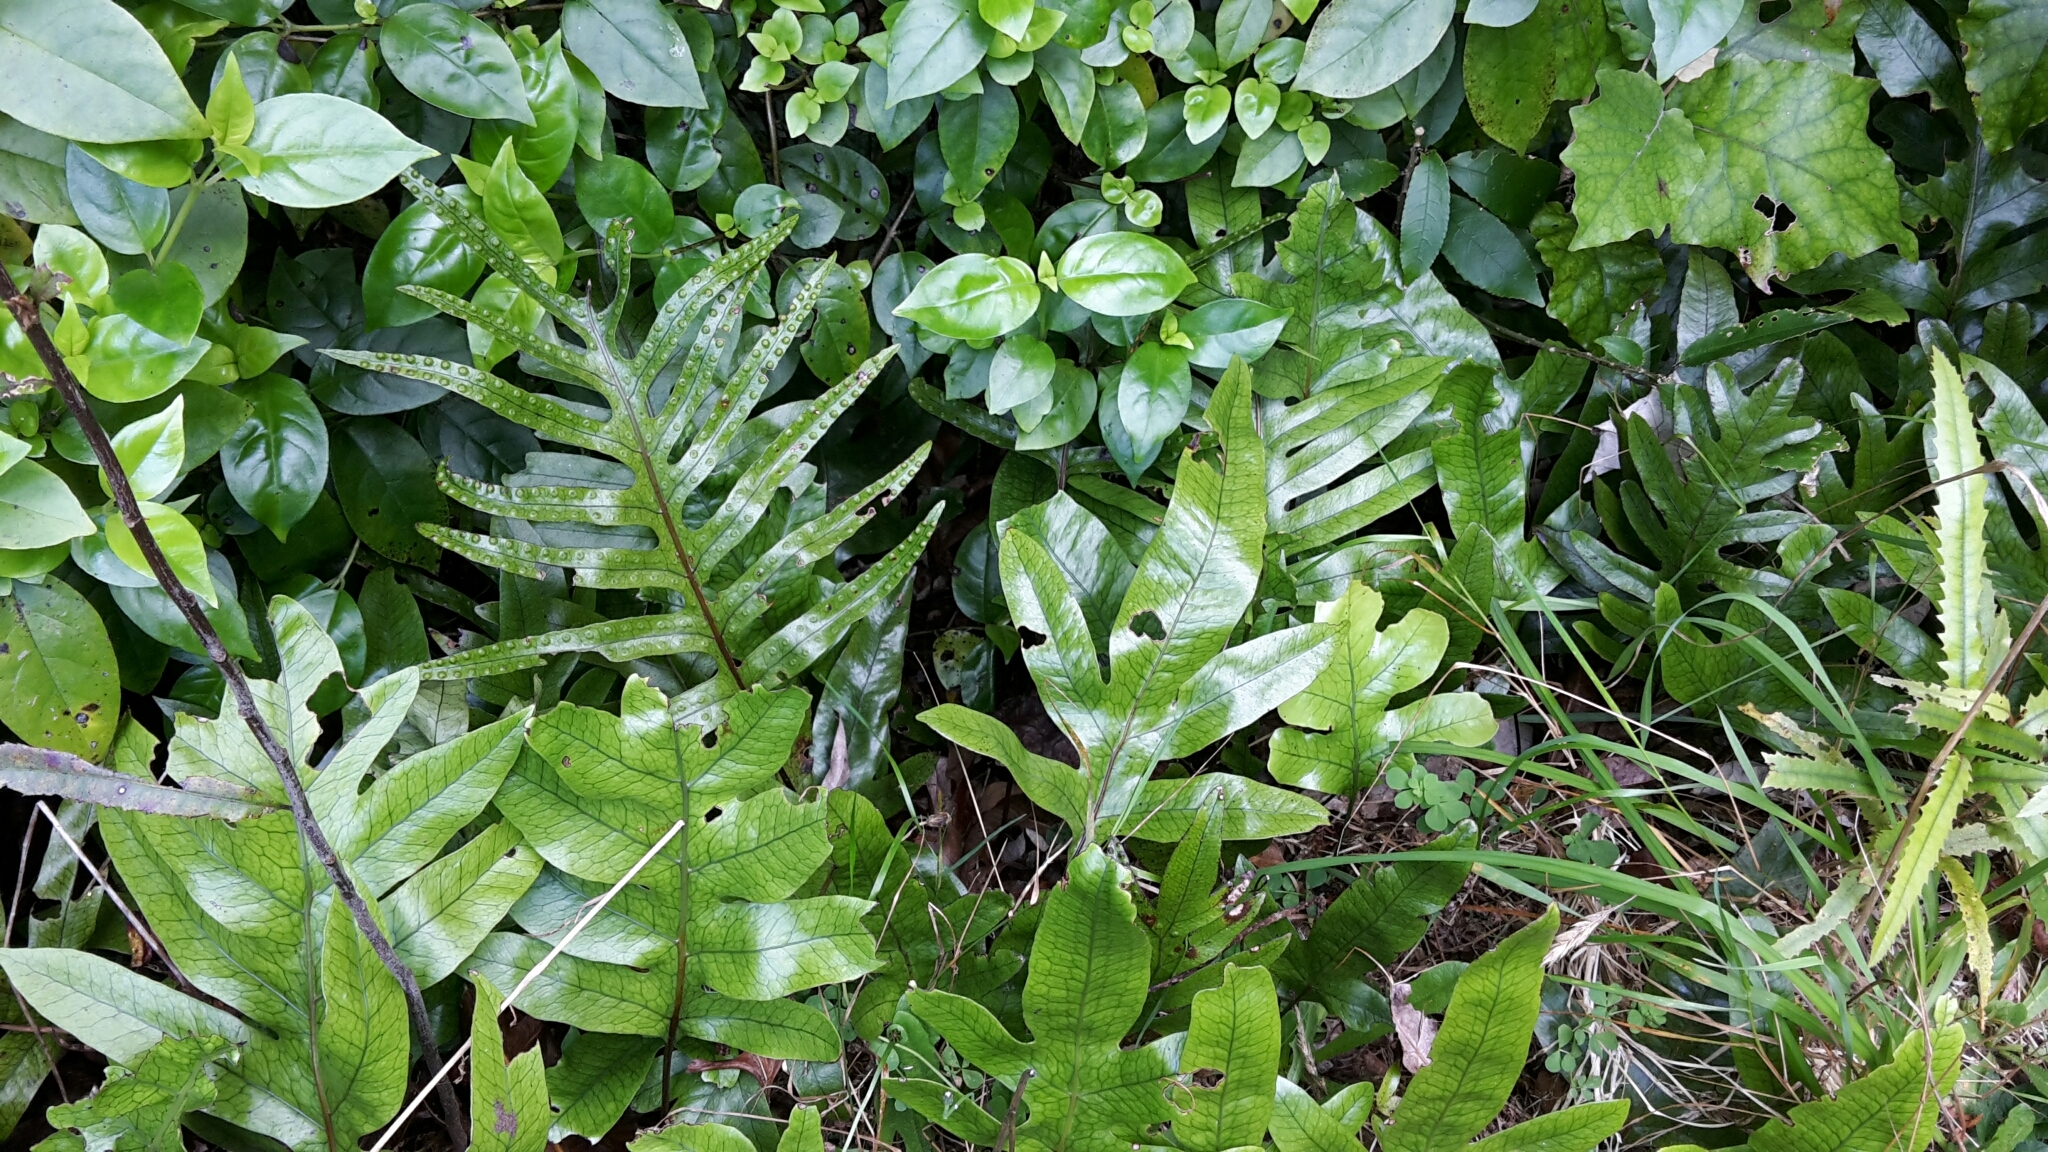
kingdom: Plantae
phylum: Tracheophyta
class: Polypodiopsida
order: Polypodiales
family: Polypodiaceae
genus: Lecanopteris
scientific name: Lecanopteris pustulata
